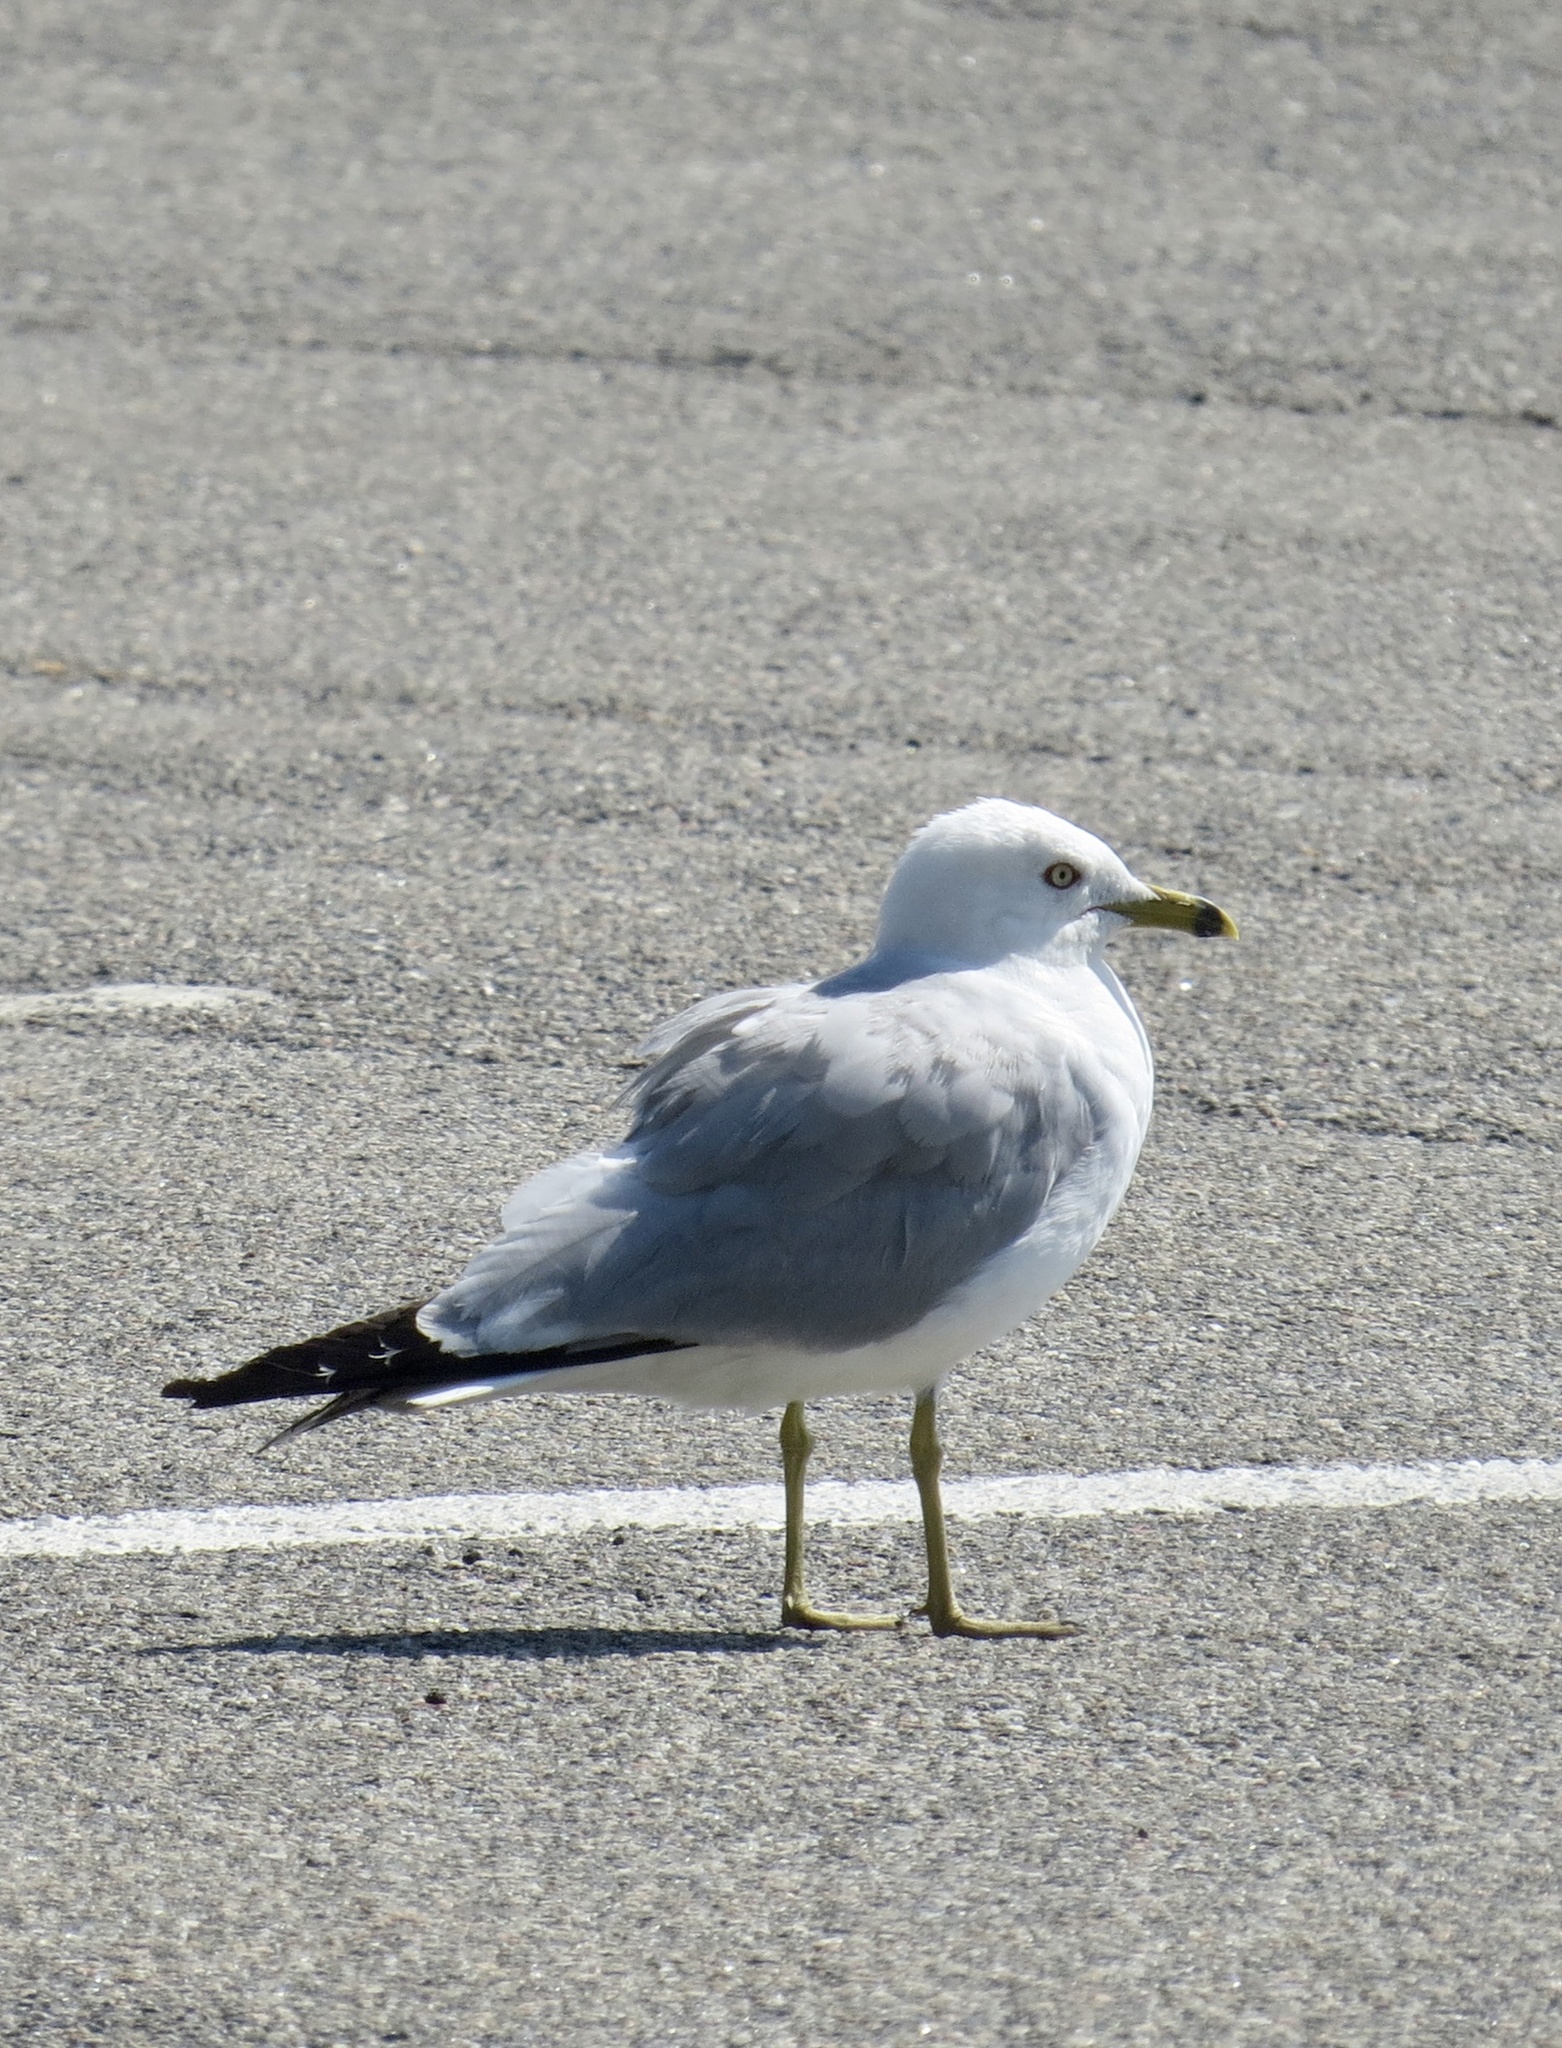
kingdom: Animalia
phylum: Chordata
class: Aves
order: Charadriiformes
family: Laridae
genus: Larus
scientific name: Larus delawarensis
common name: Ring-billed gull
